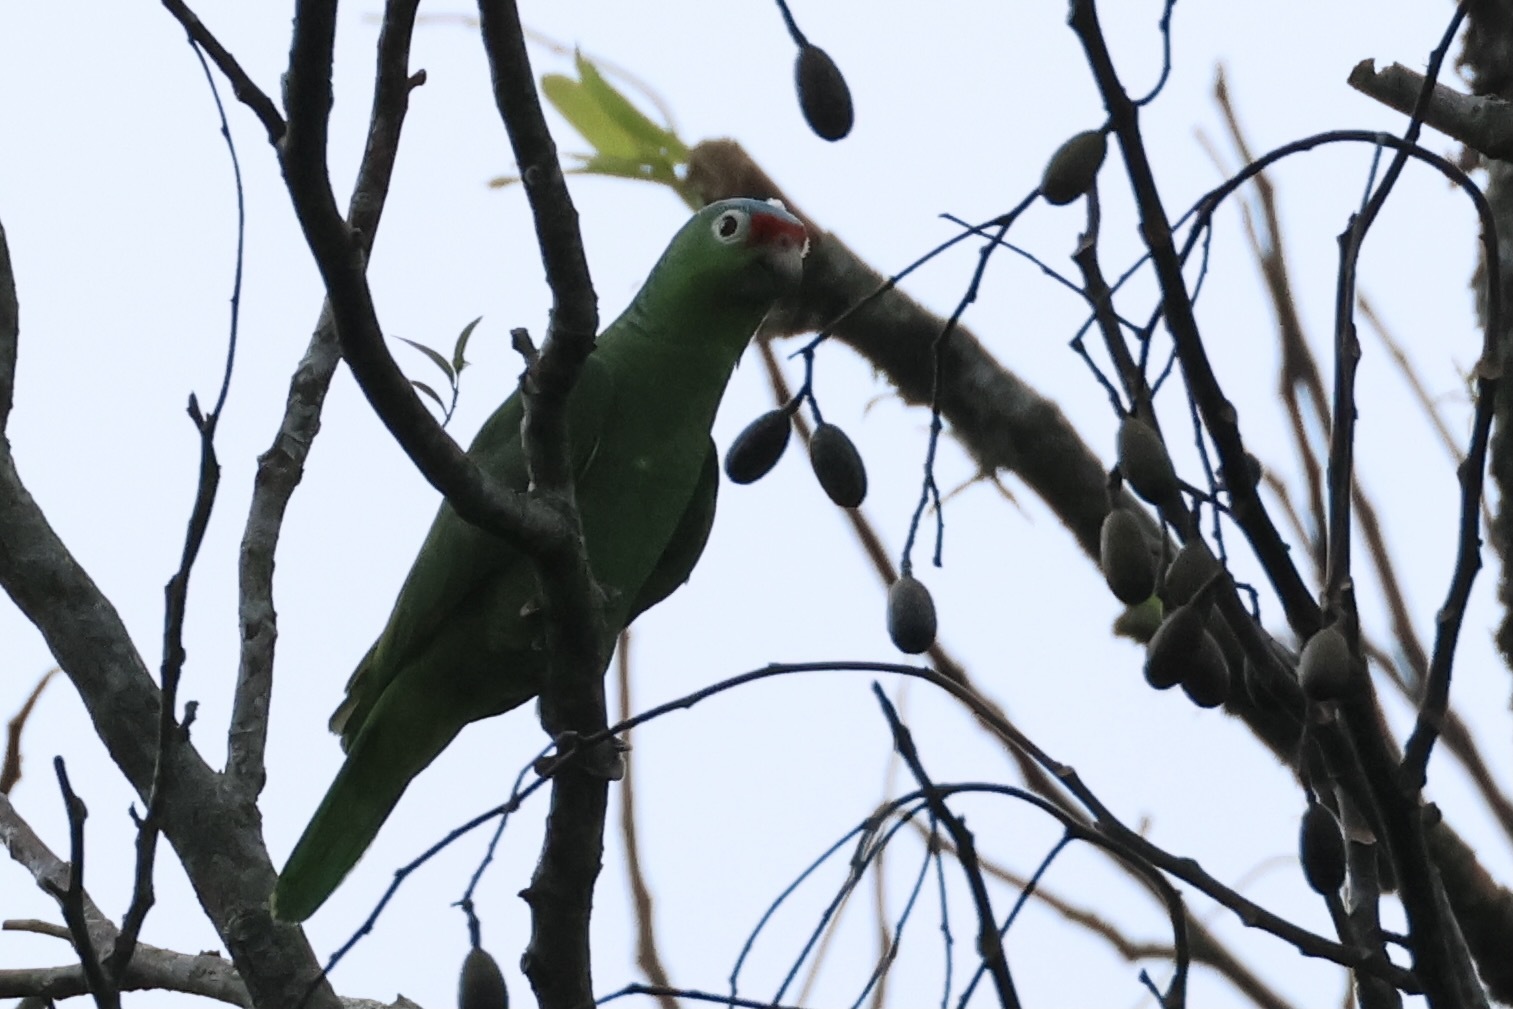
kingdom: Animalia
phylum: Chordata
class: Aves
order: Psittaciformes
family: Psittacidae
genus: Amazona
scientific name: Amazona autumnalis
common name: Red-lored amazon
